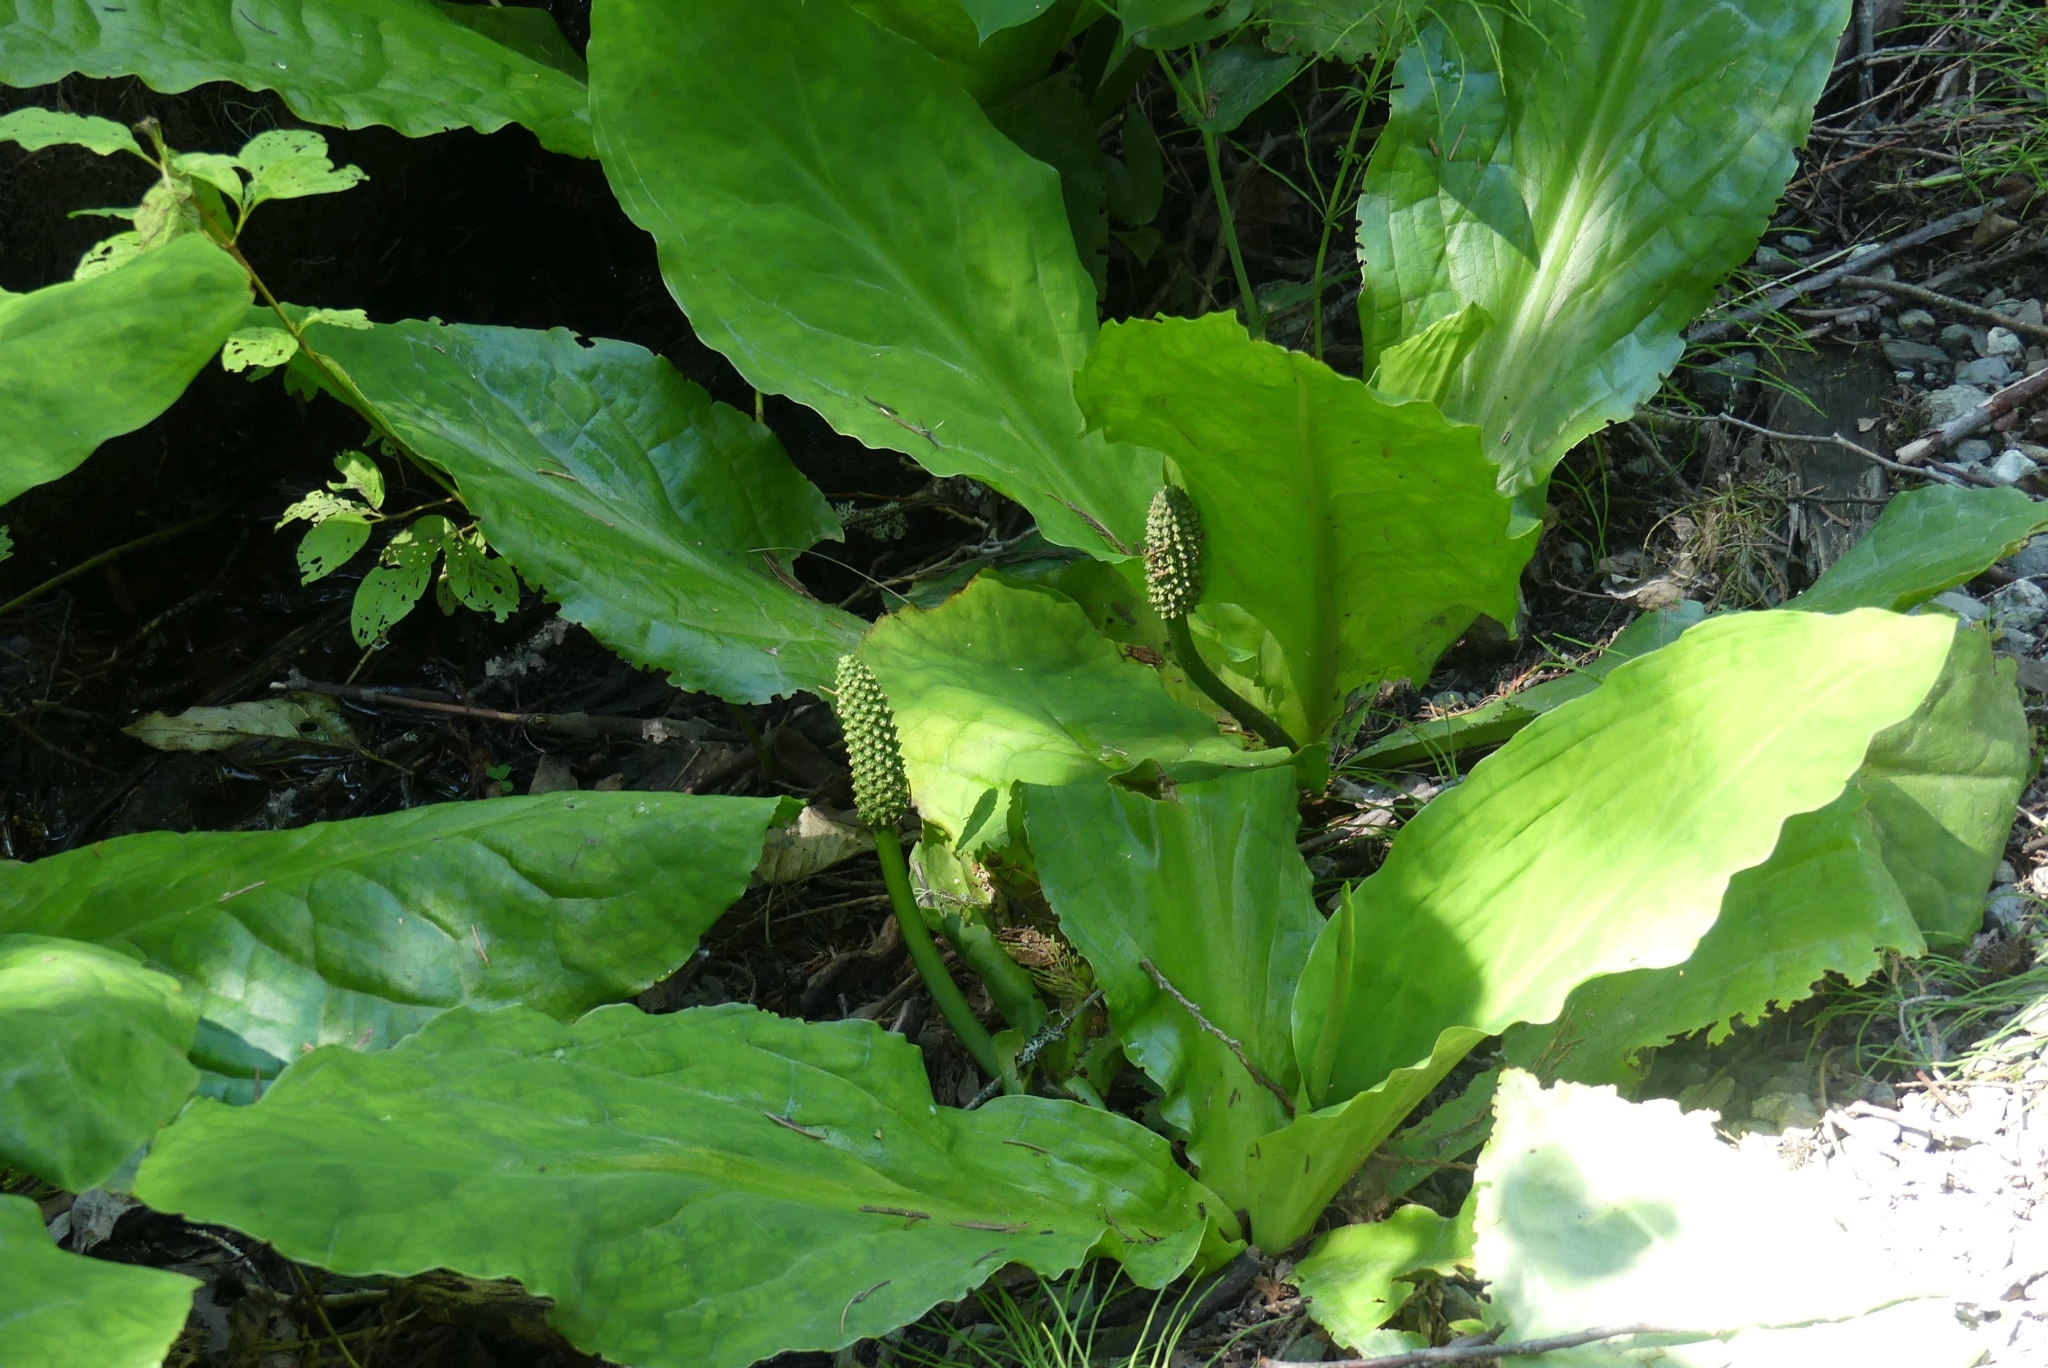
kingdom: Plantae
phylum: Tracheophyta
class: Liliopsida
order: Alismatales
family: Araceae
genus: Lysichiton
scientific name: Lysichiton americanus
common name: American skunk cabbage
